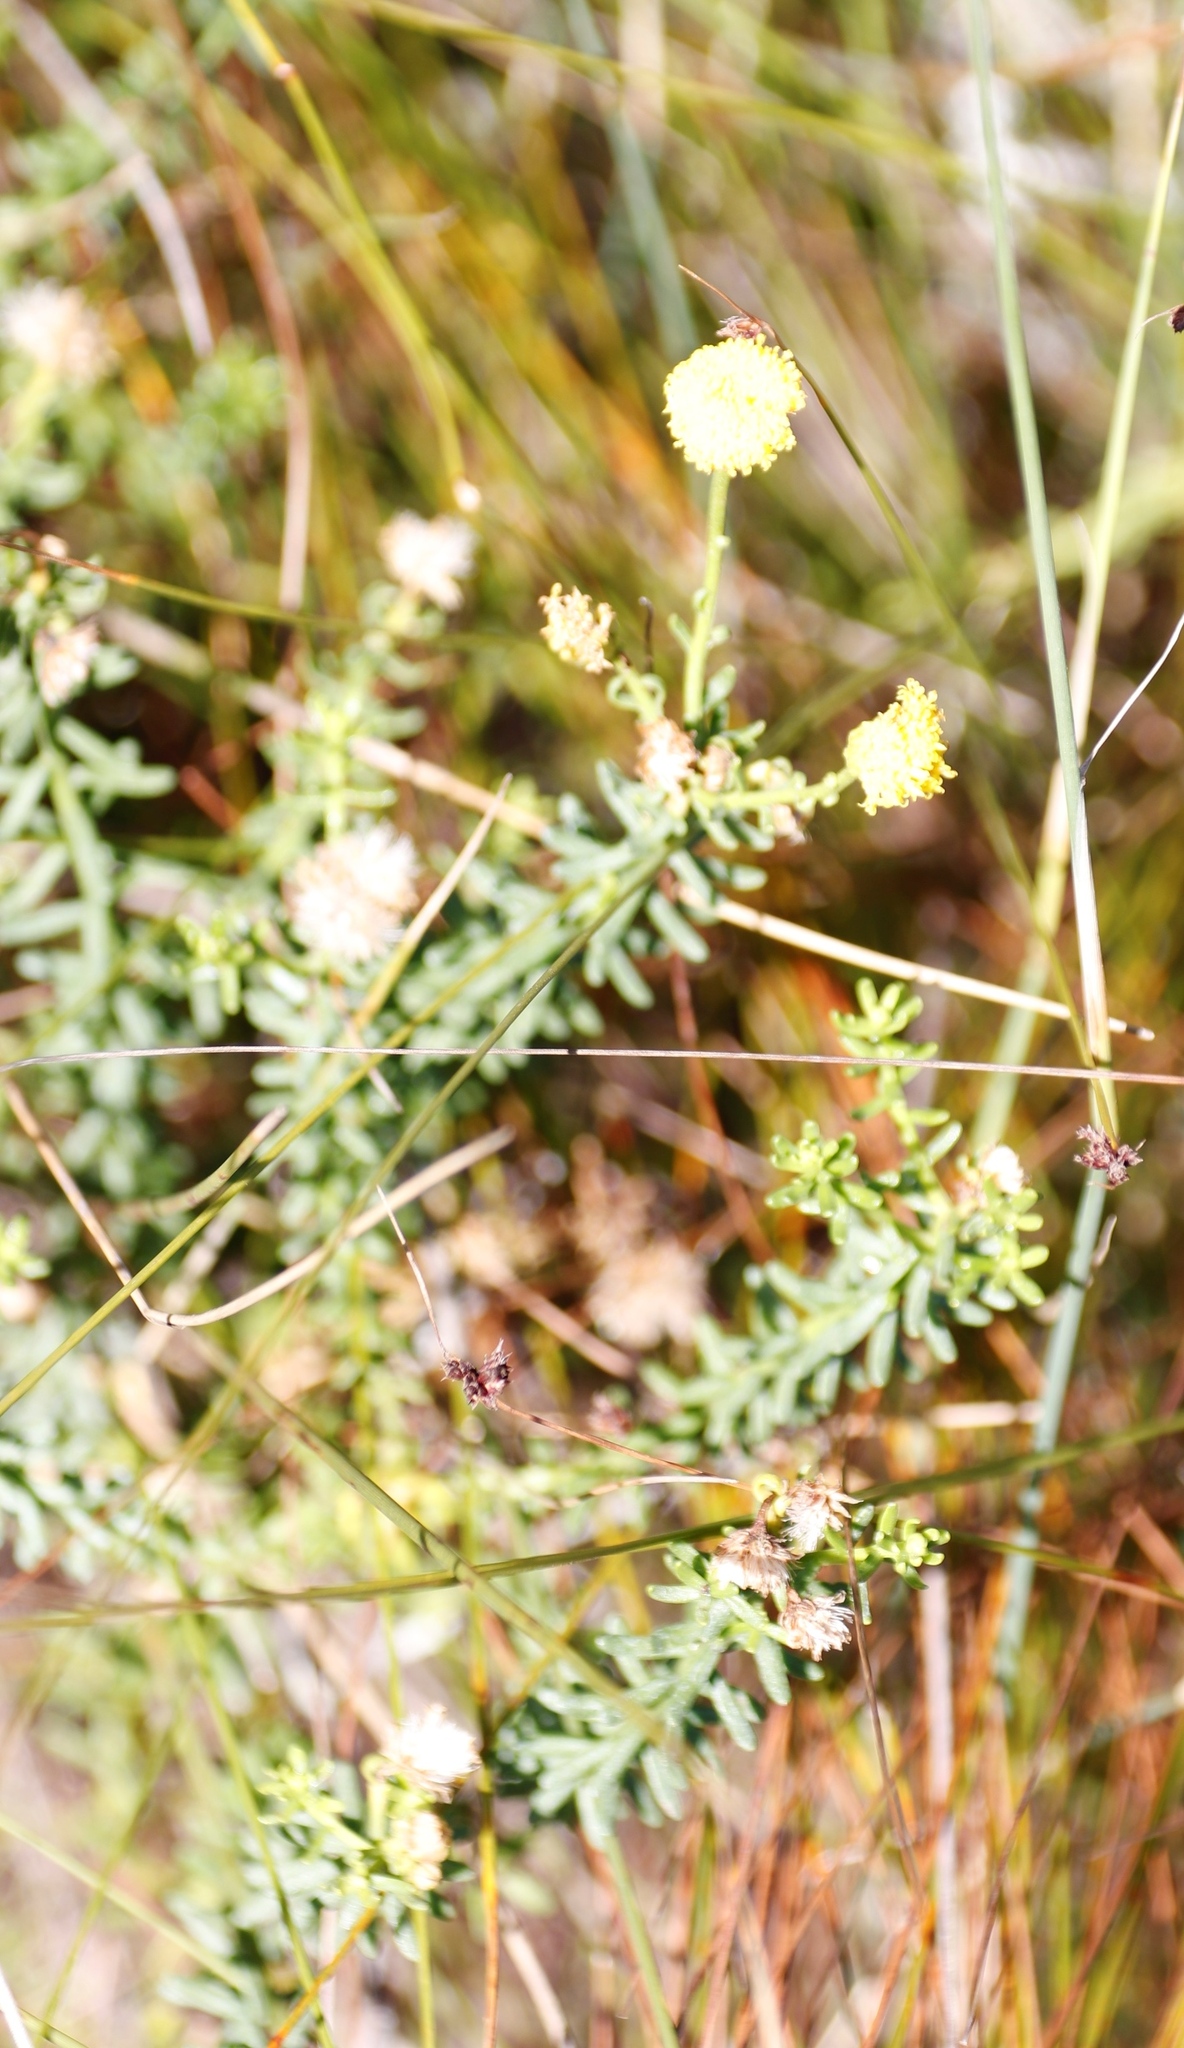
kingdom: Plantae
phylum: Tracheophyta
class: Magnoliopsida
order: Asterales
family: Asteraceae
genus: Chrysocoma
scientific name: Chrysocoma cernua
